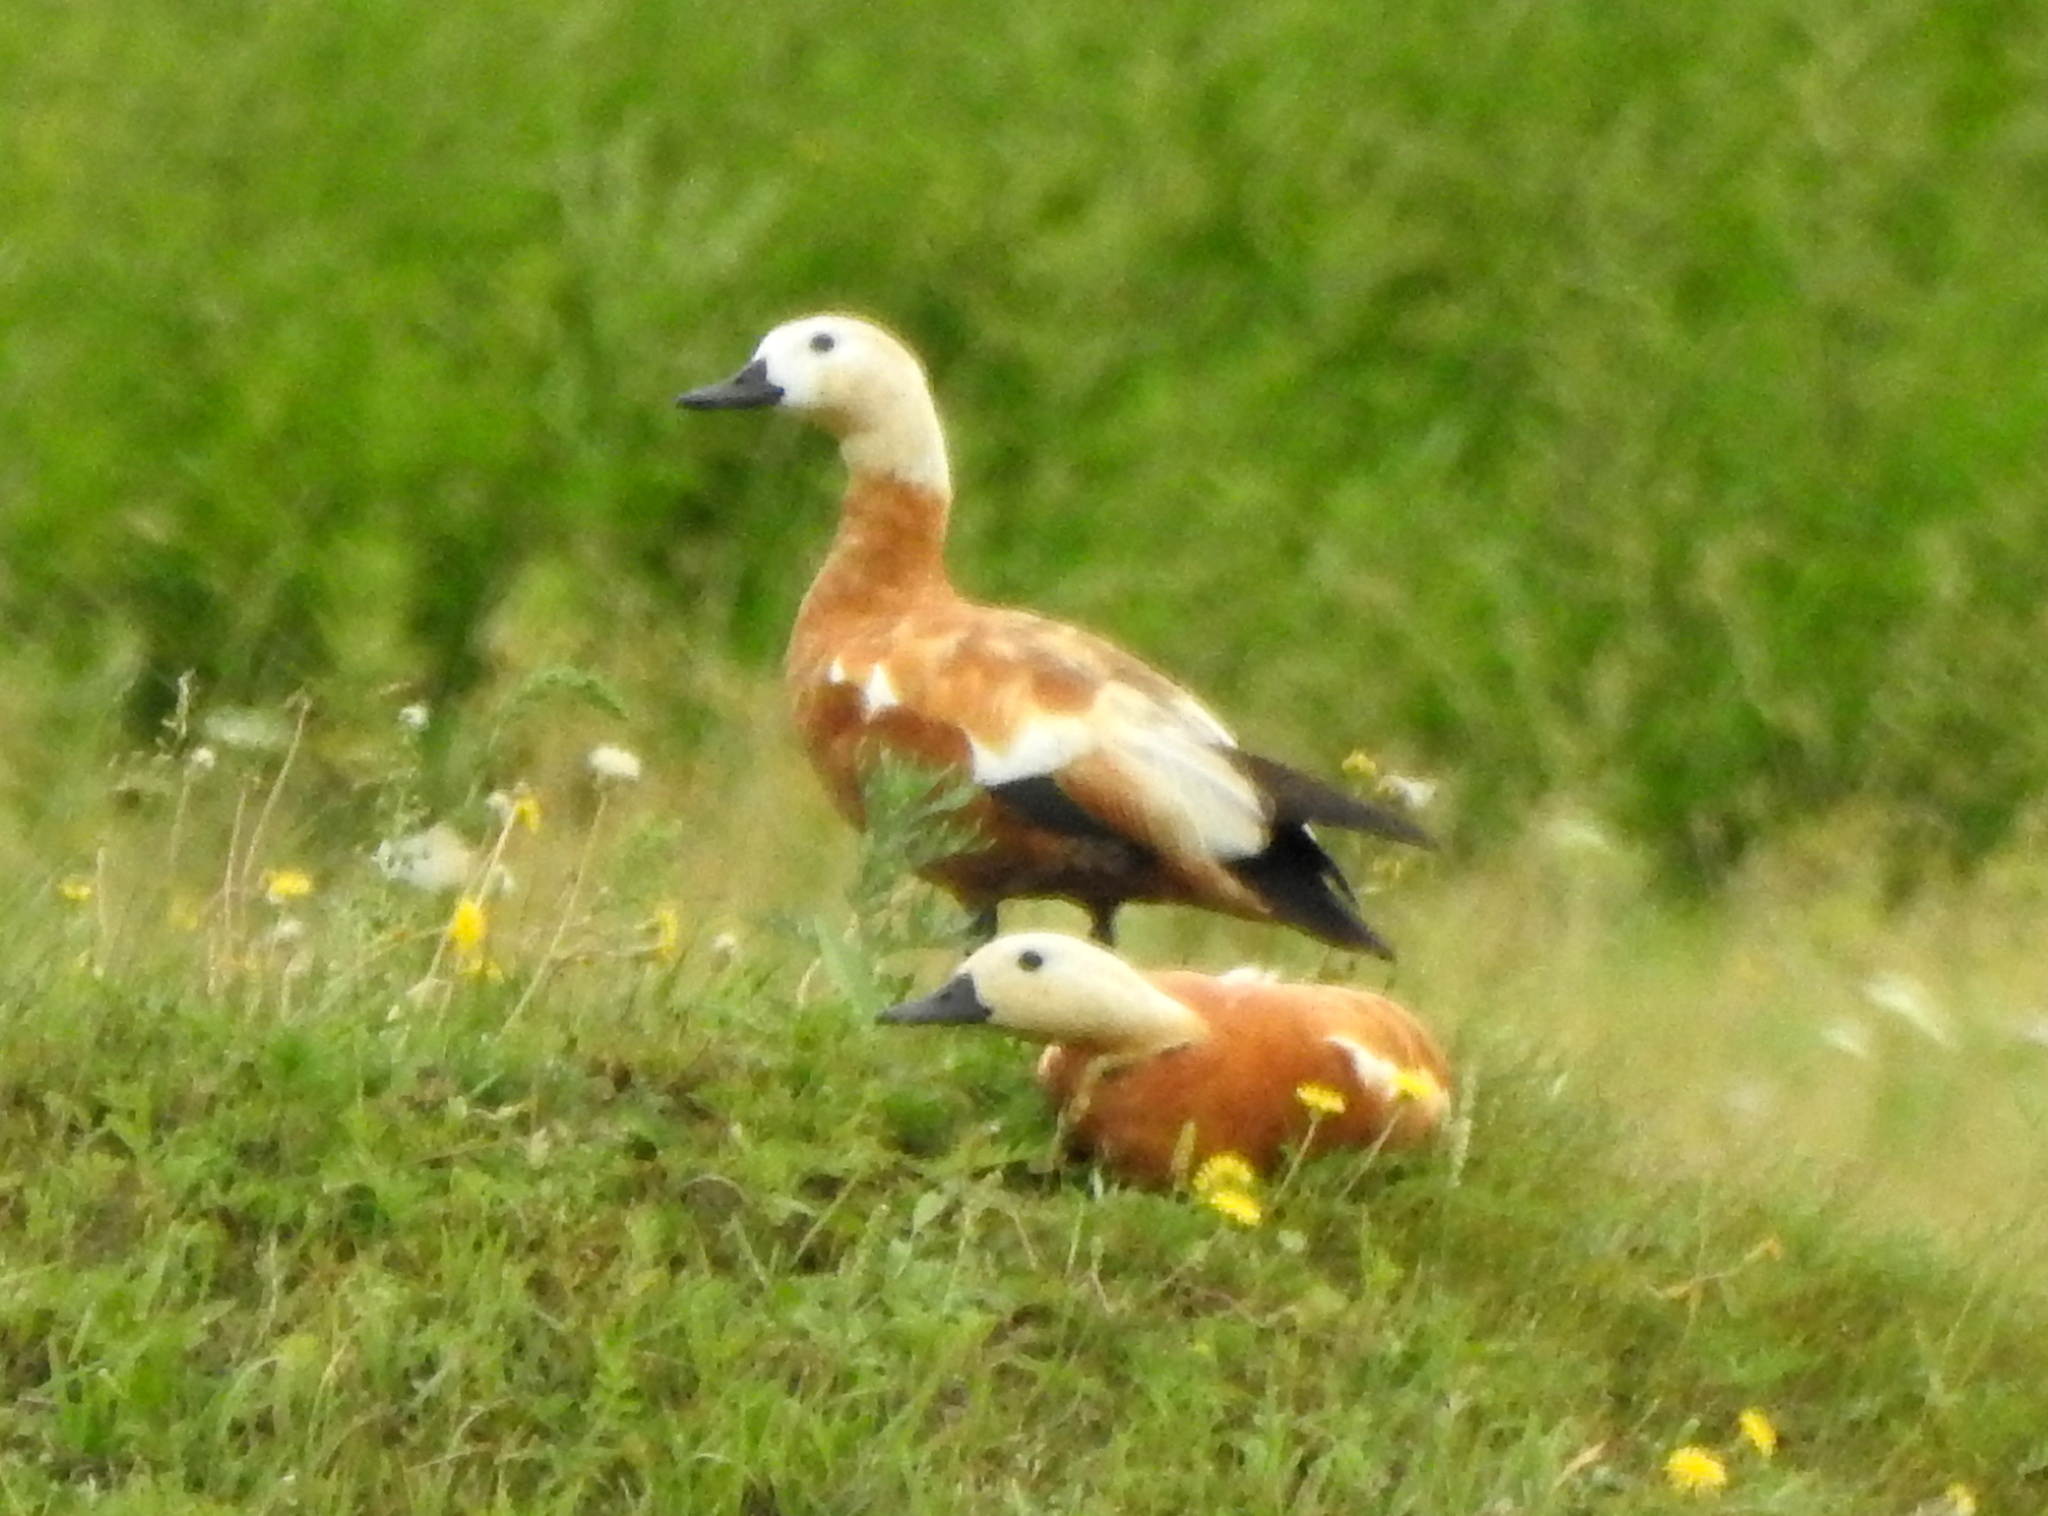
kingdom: Animalia
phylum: Chordata
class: Aves
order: Anseriformes
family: Anatidae
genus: Tadorna
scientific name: Tadorna ferruginea
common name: Ruddy shelduck
